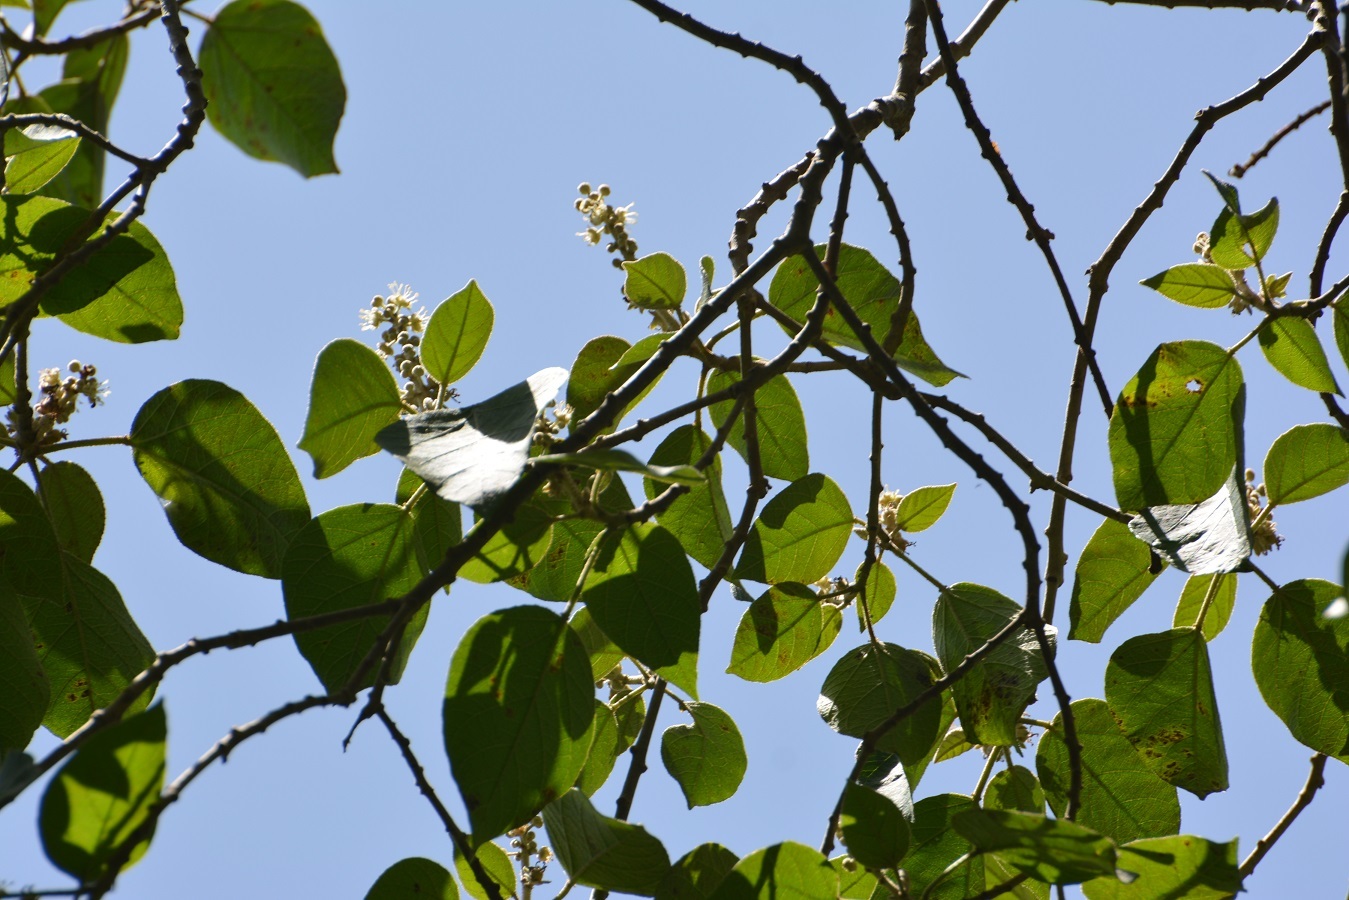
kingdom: Plantae
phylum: Tracheophyta
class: Magnoliopsida
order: Malpighiales
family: Euphorbiaceae
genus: Croton
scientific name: Croton francoanus
